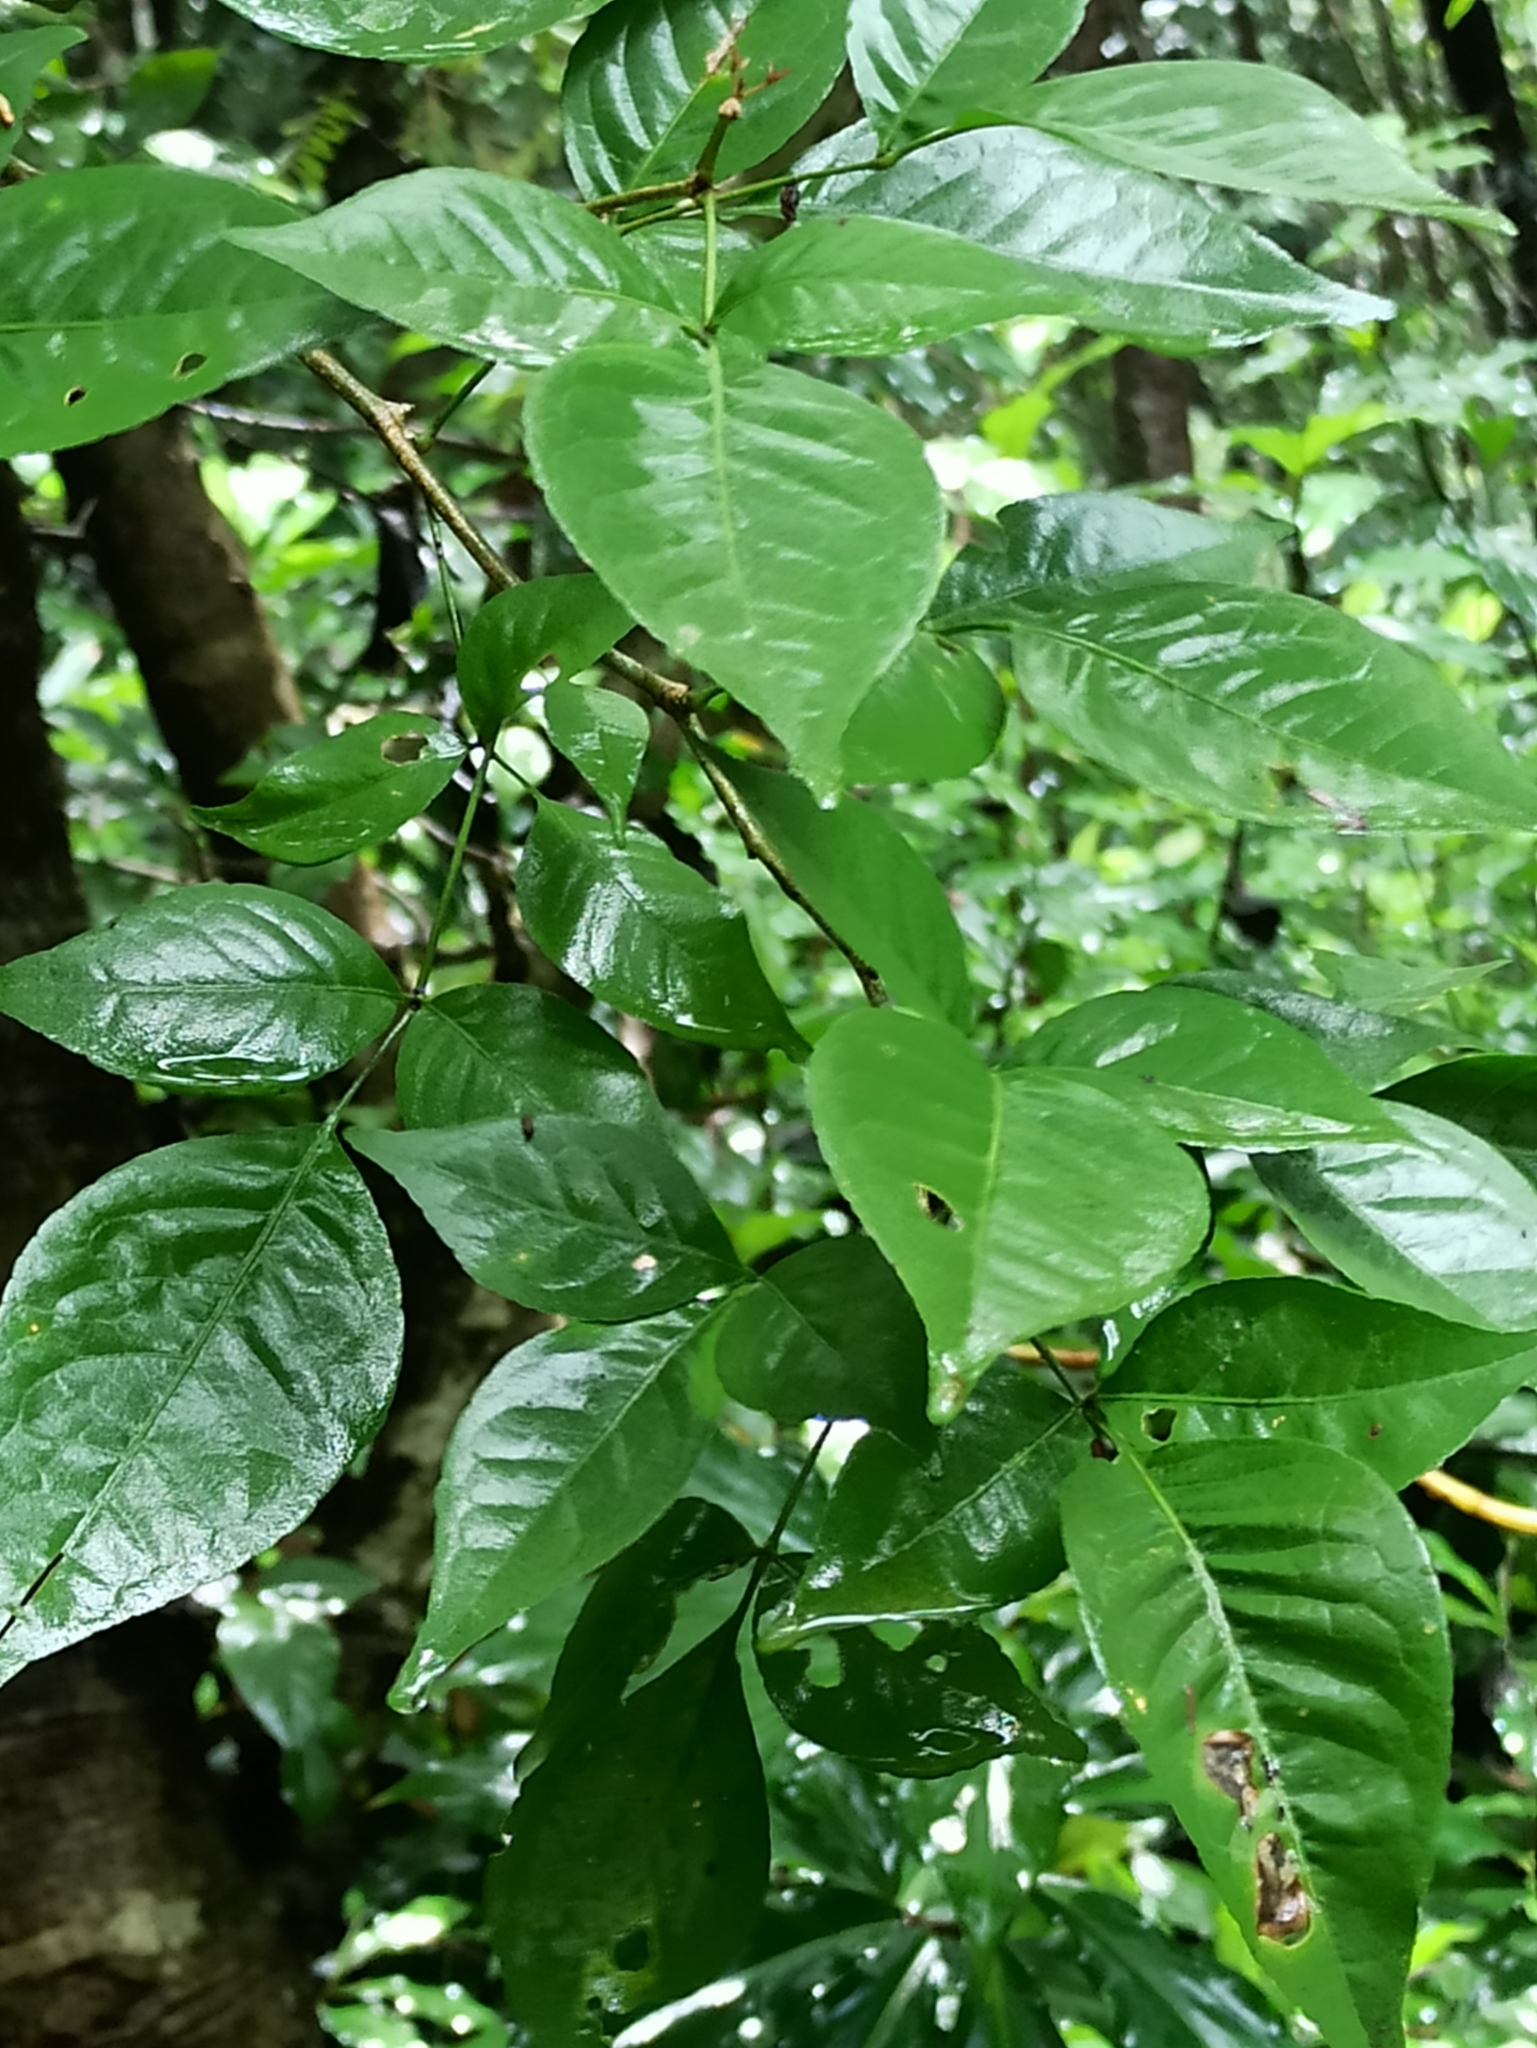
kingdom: Plantae
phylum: Tracheophyta
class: Magnoliopsida
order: Sapindales
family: Rutaceae
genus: Aegle
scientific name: Aegle marmelos
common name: Bael
